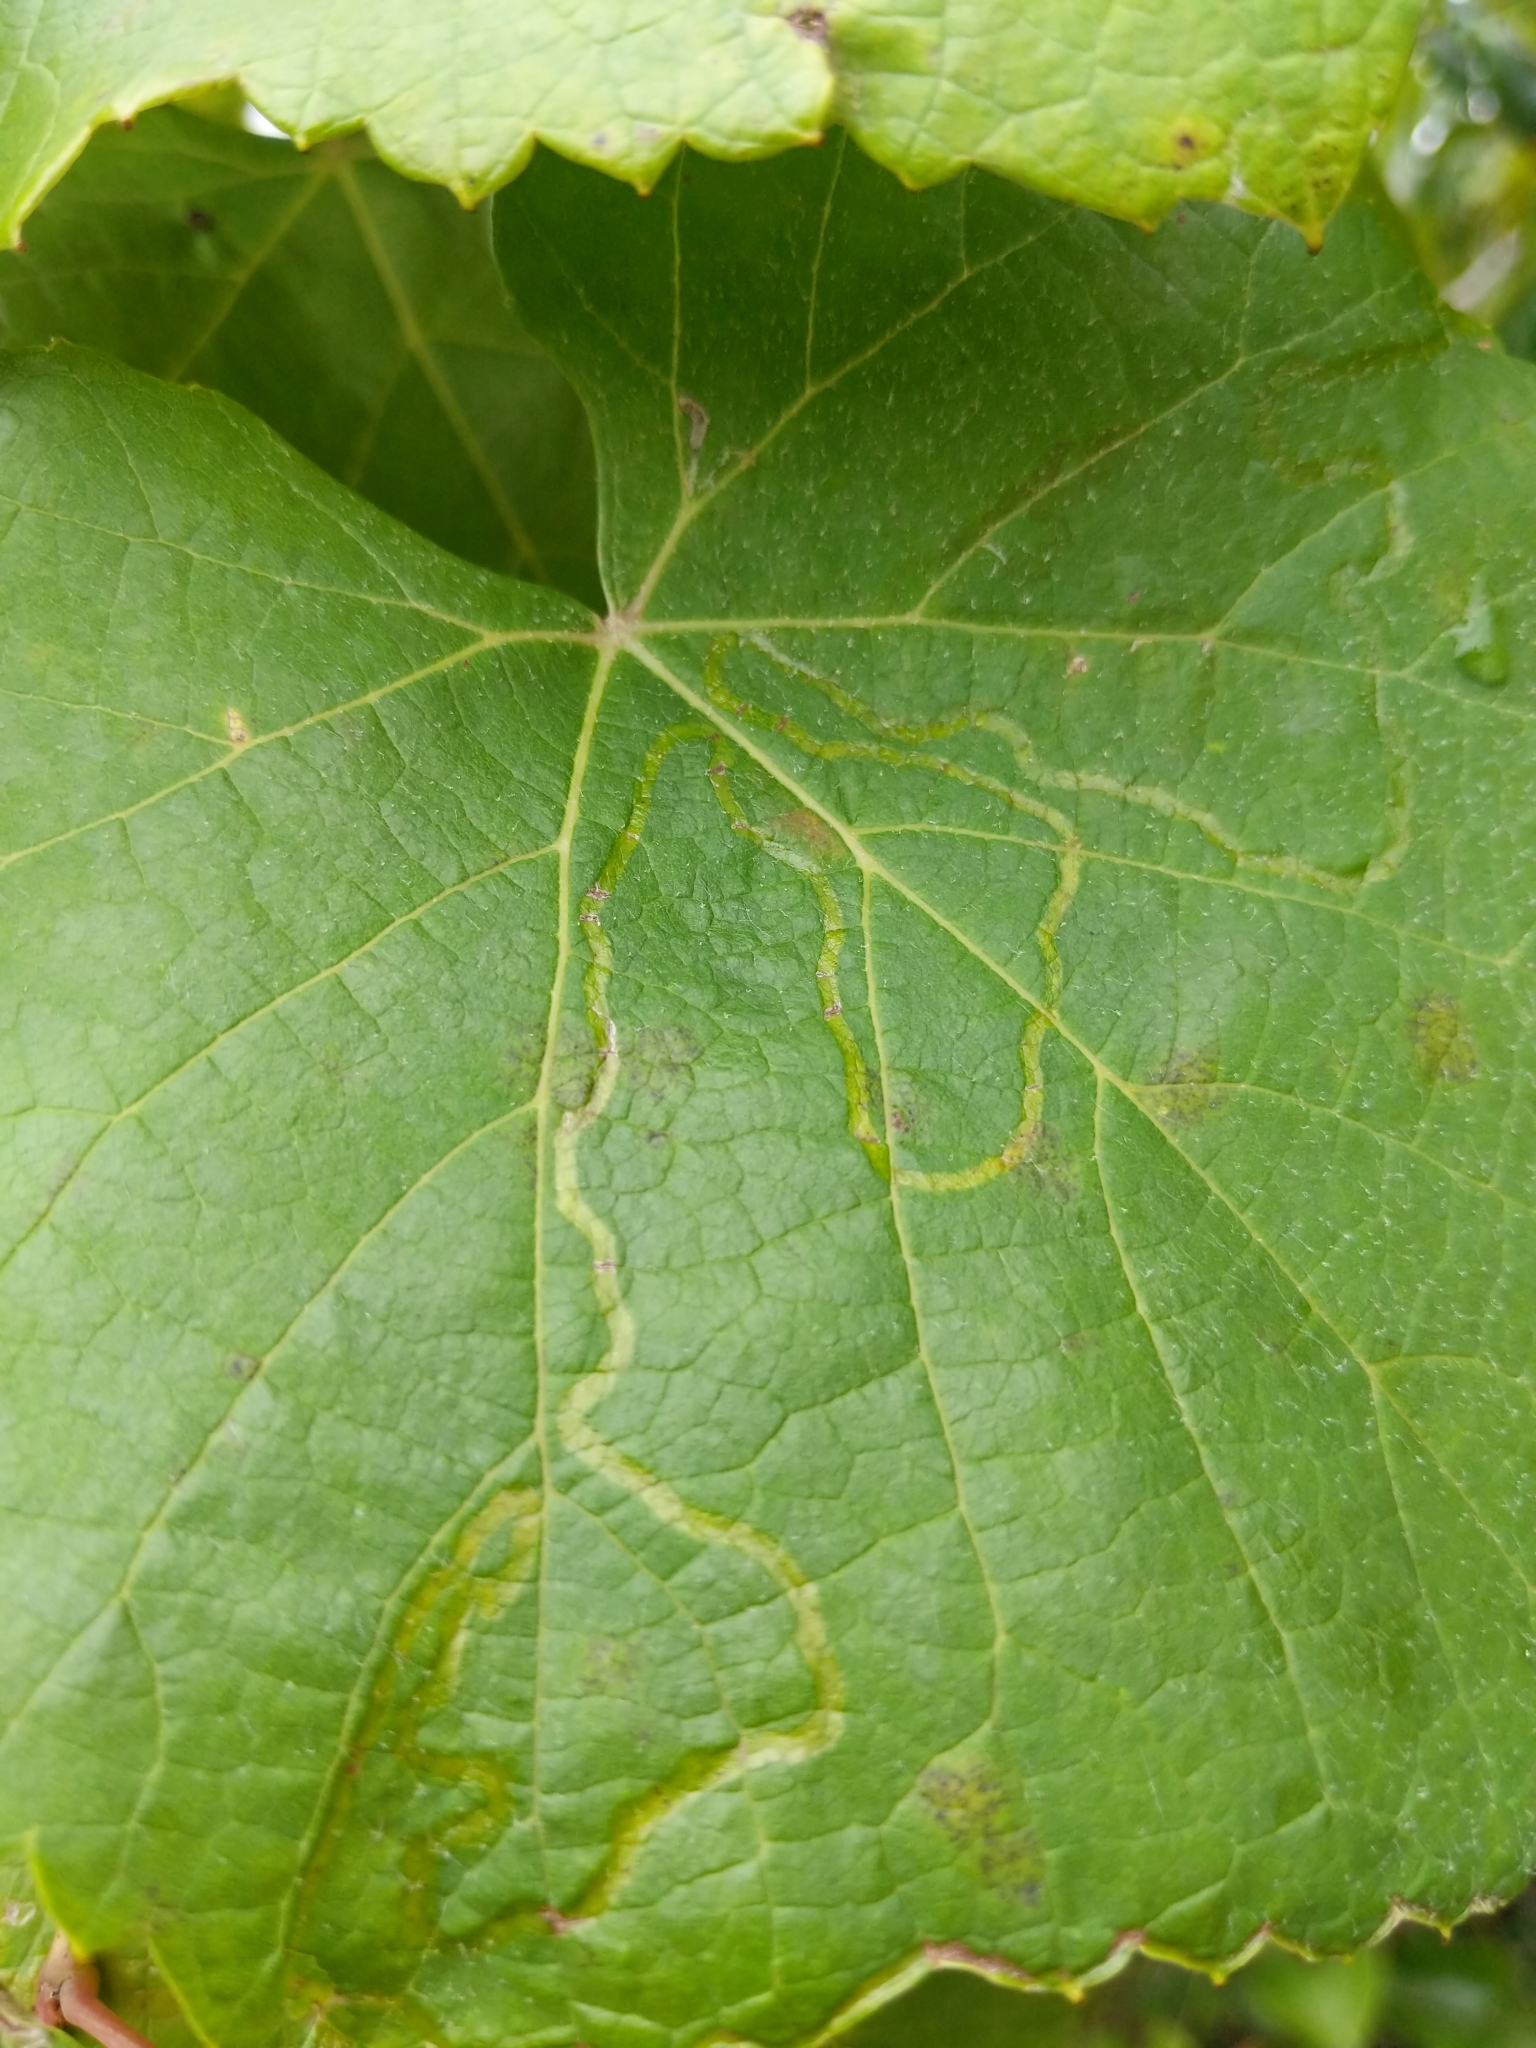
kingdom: Animalia
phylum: Arthropoda
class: Insecta
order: Lepidoptera
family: Gracillariidae
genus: Phyllocnistis
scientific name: Phyllocnistis vitegenella
